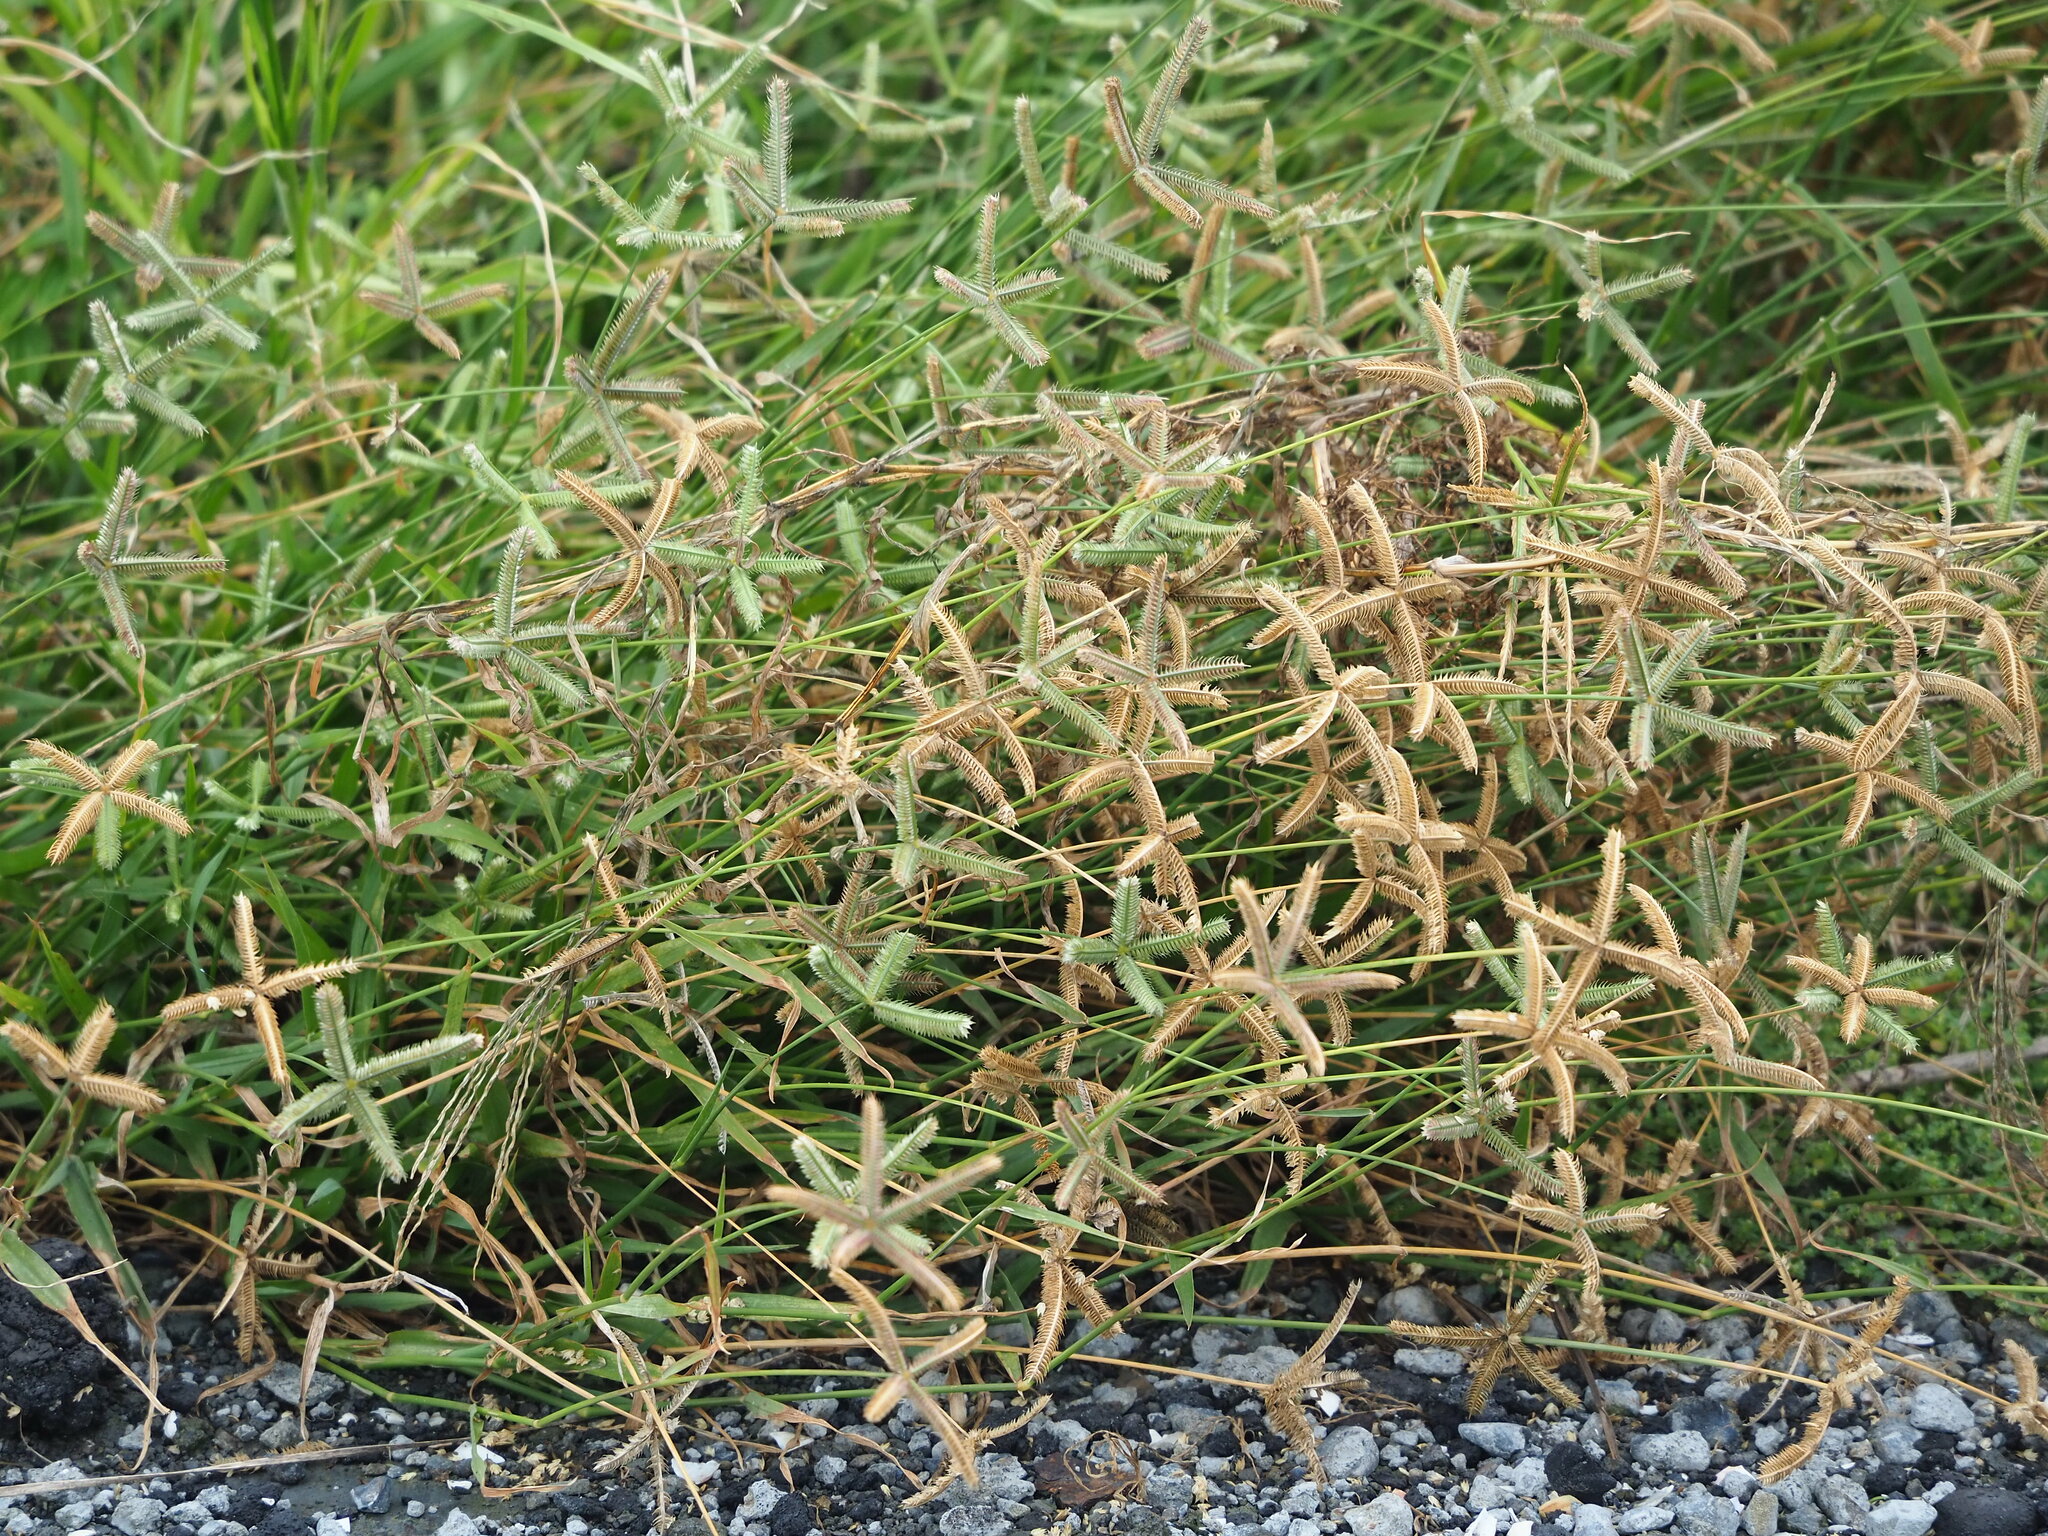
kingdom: Plantae
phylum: Tracheophyta
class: Liliopsida
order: Poales
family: Poaceae
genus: Dactyloctenium
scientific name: Dactyloctenium aegyptium
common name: Egyptian grass
